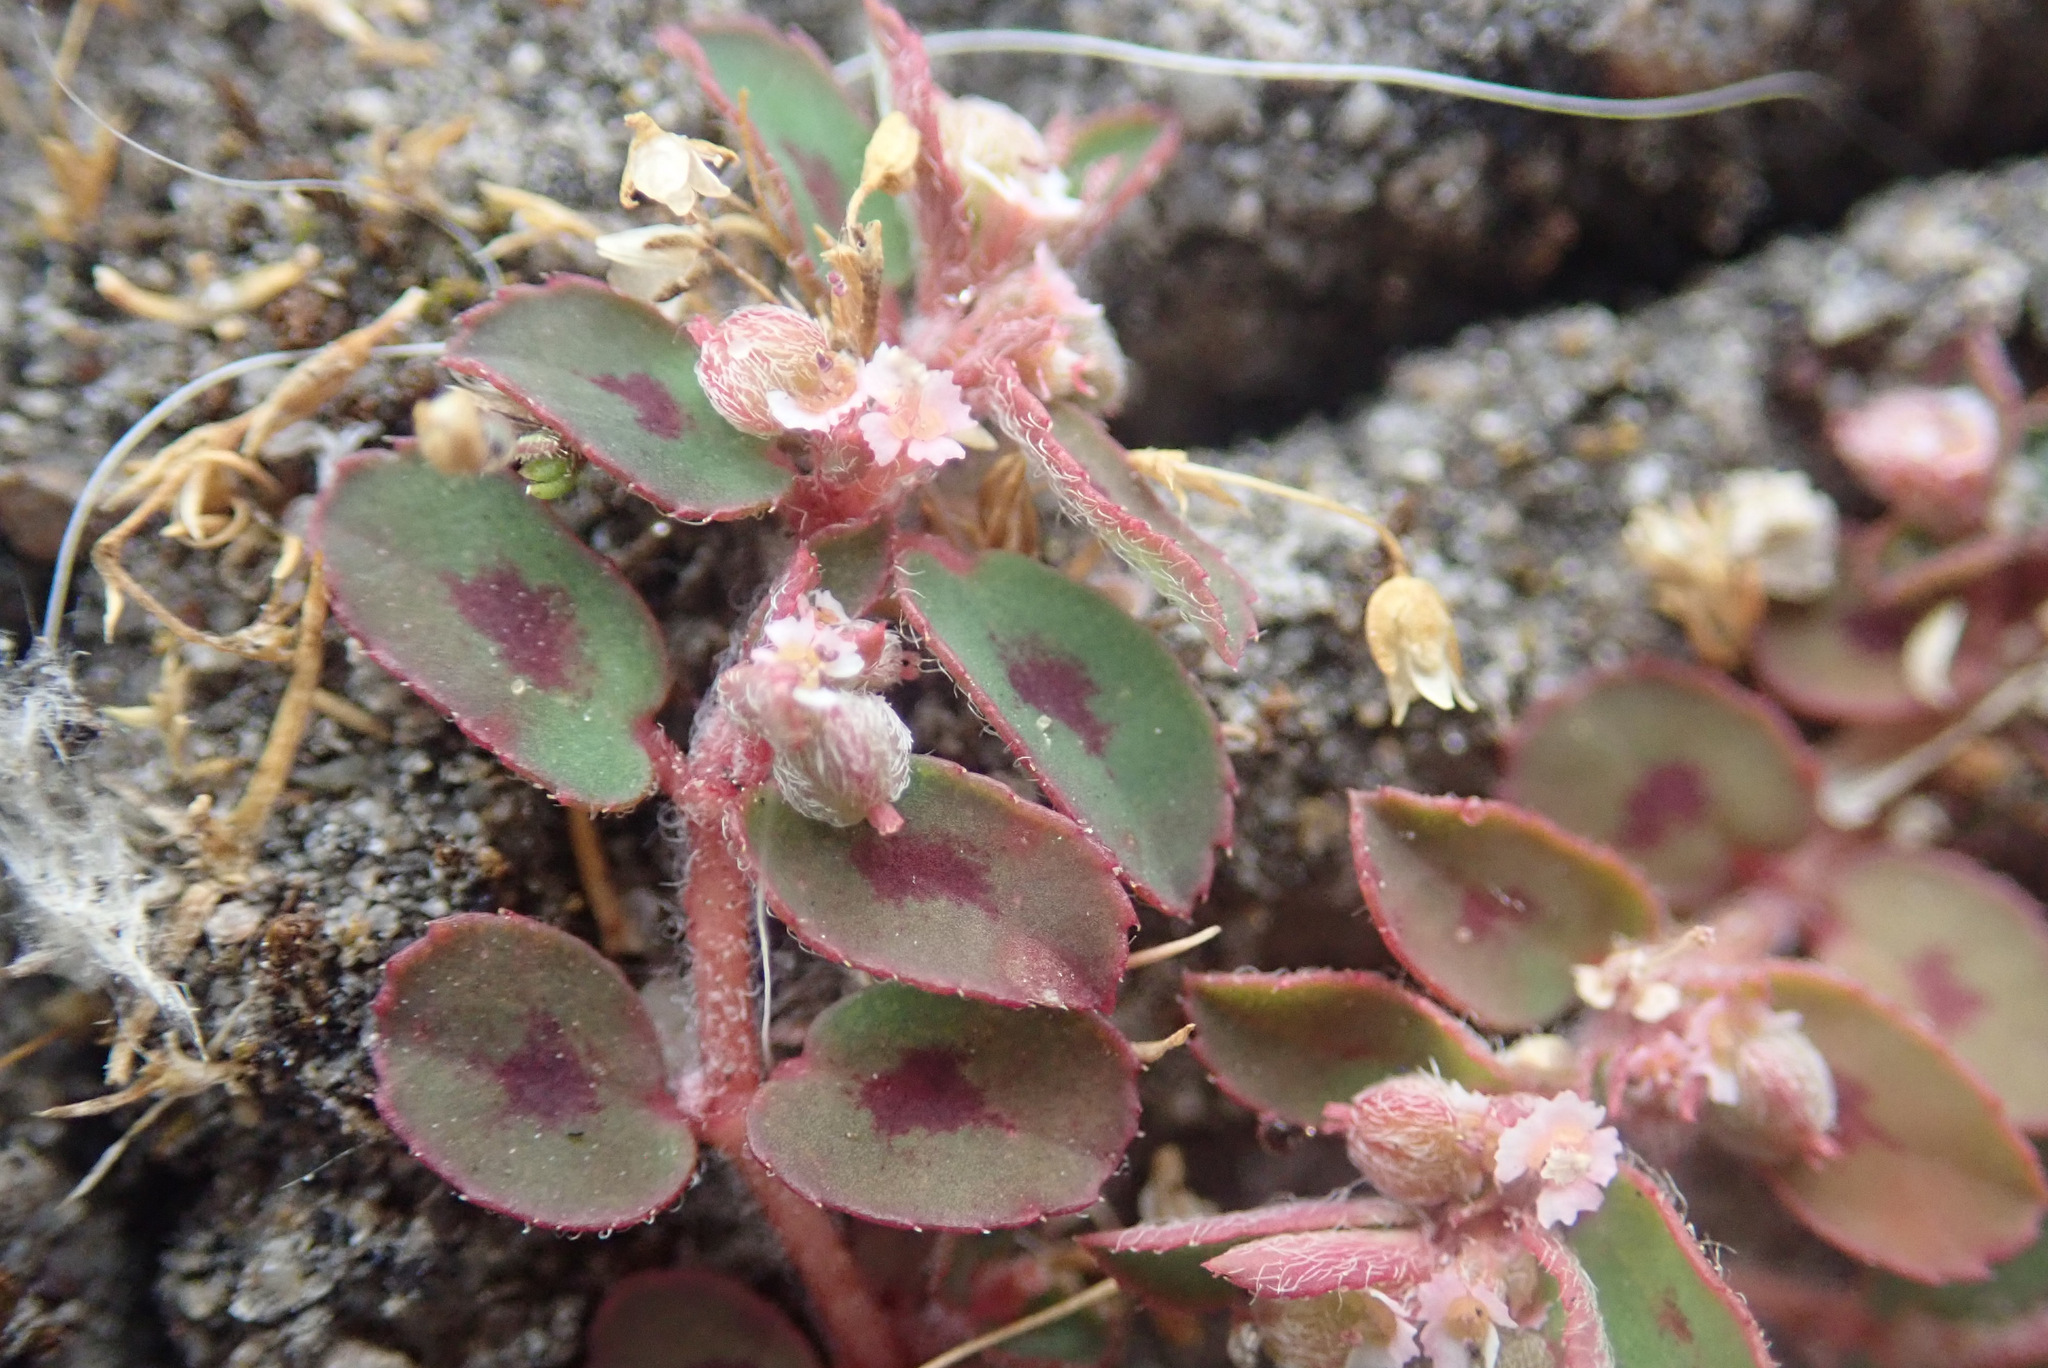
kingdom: Plantae
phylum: Tracheophyta
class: Magnoliopsida
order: Malpighiales
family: Euphorbiaceae
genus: Euphorbia
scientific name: Euphorbia maculata
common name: Spotted spurge
